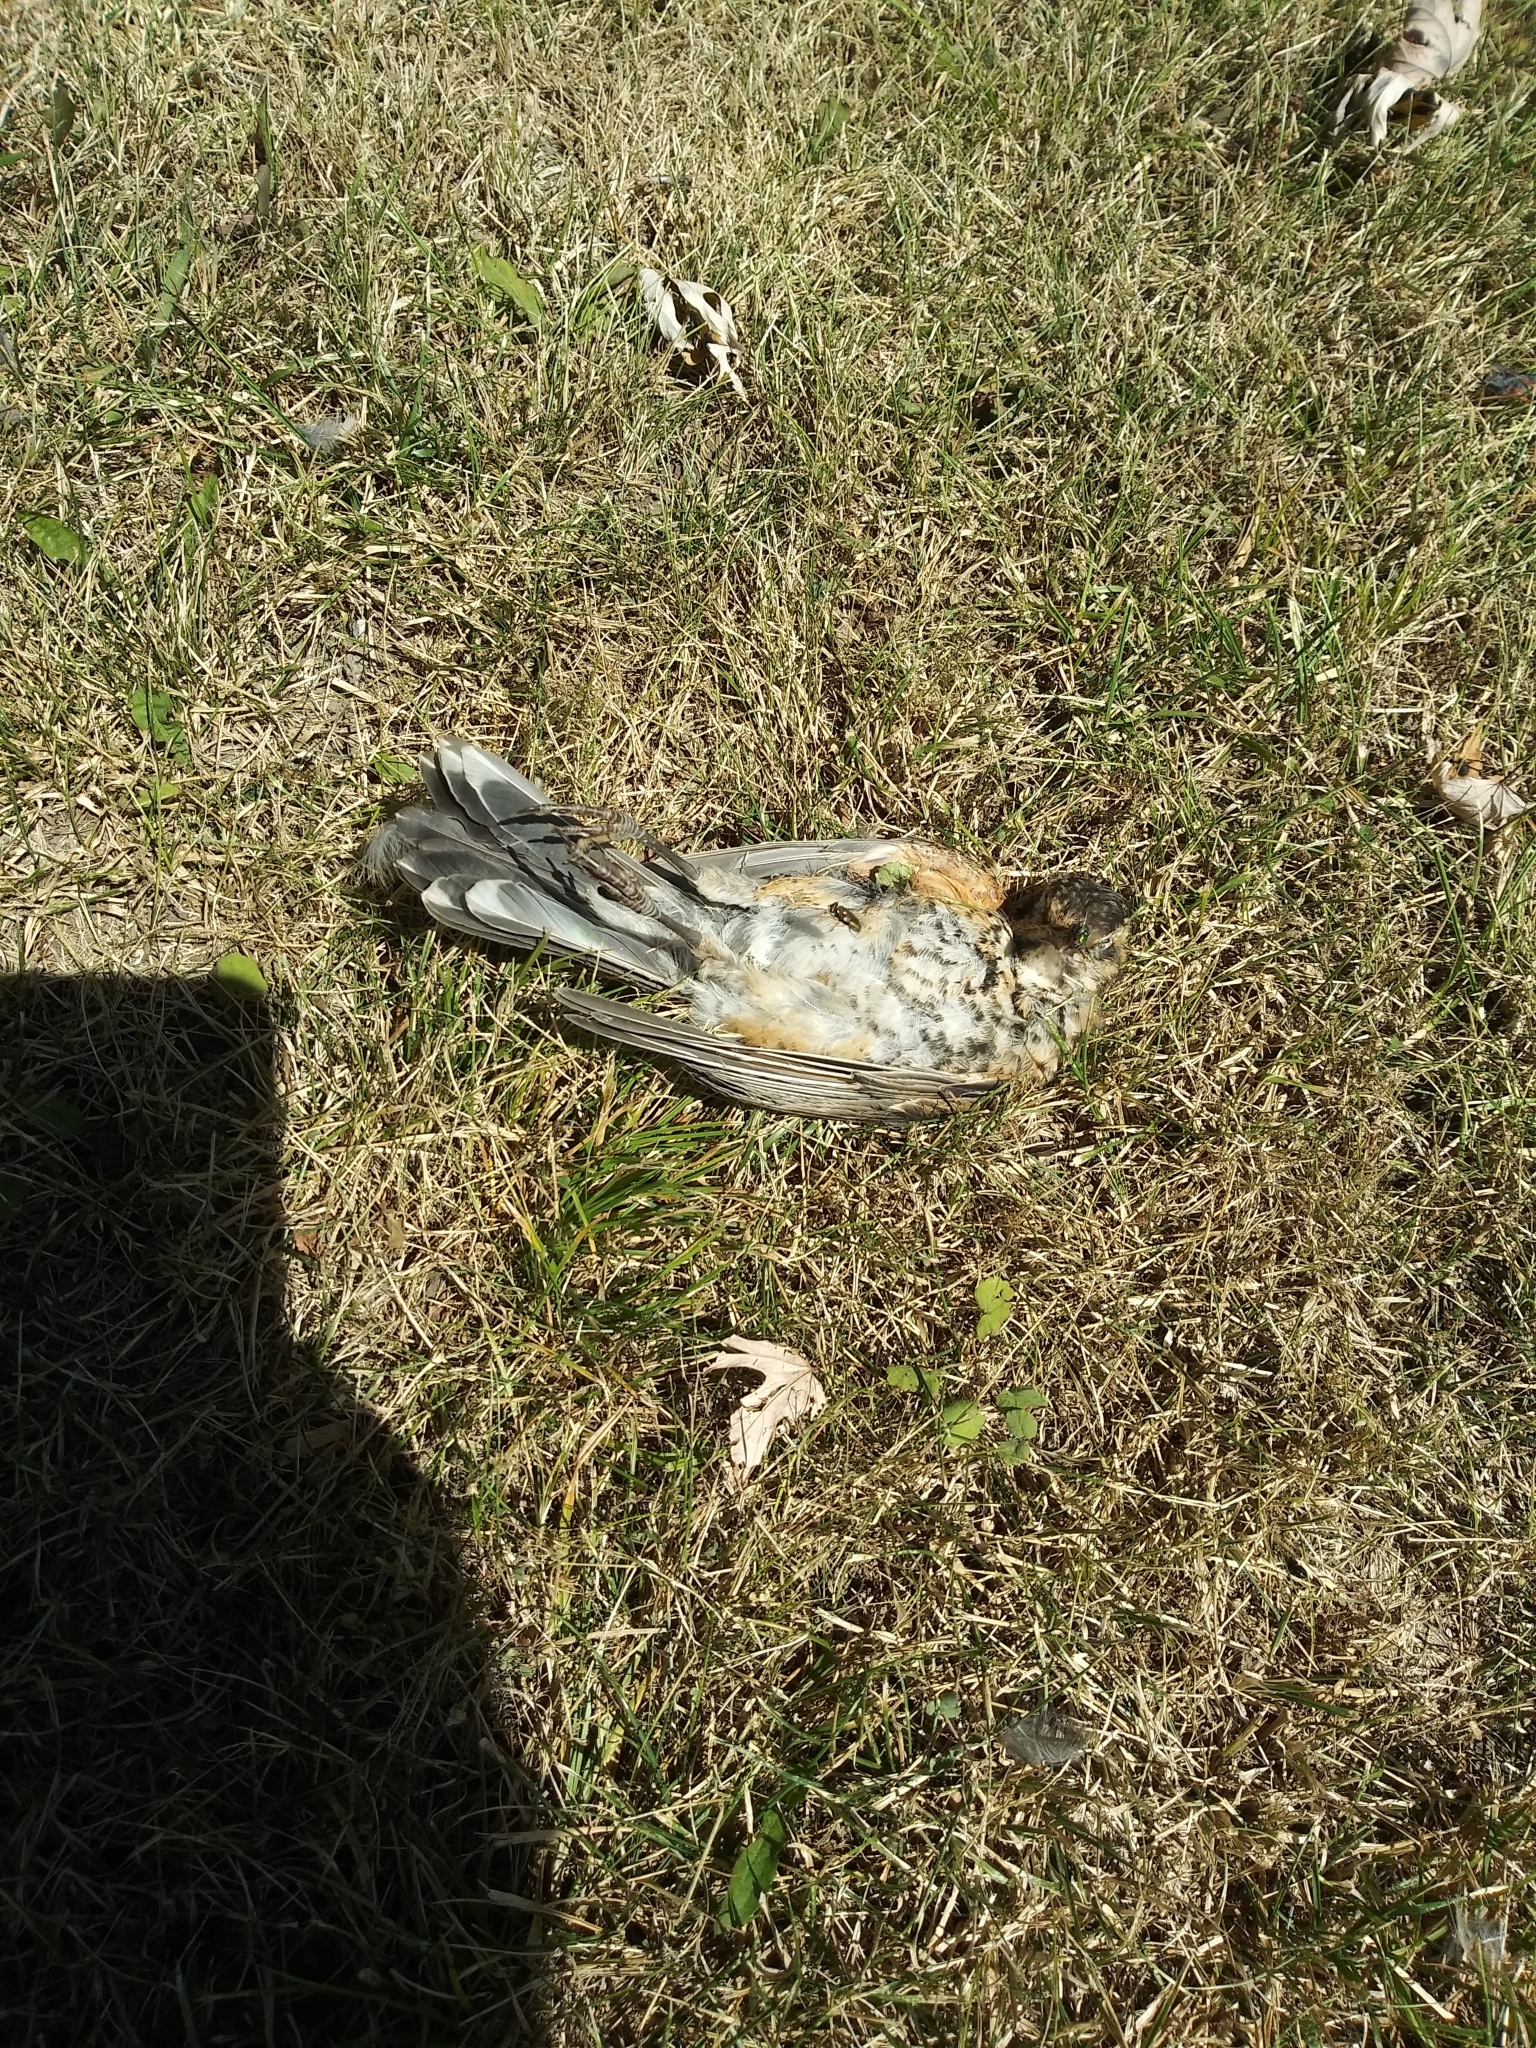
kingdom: Animalia
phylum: Chordata
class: Aves
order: Passeriformes
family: Turdidae
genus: Turdus
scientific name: Turdus migratorius
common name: American robin
